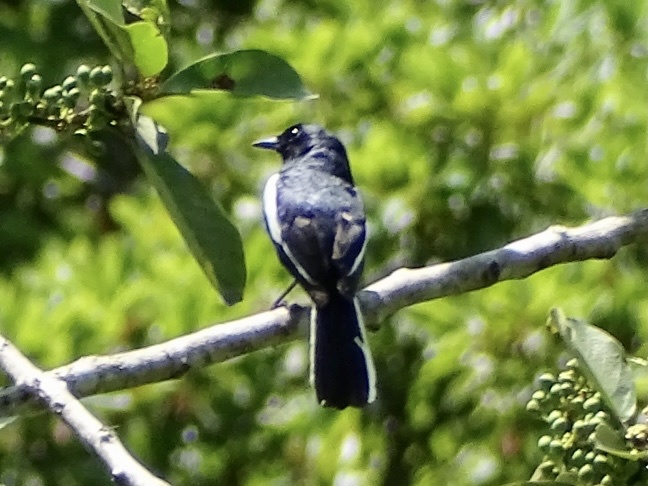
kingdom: Animalia
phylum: Chordata
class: Aves
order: Passeriformes
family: Muscicapidae
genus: Copsychus
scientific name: Copsychus saularis
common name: Oriental magpie-robin
